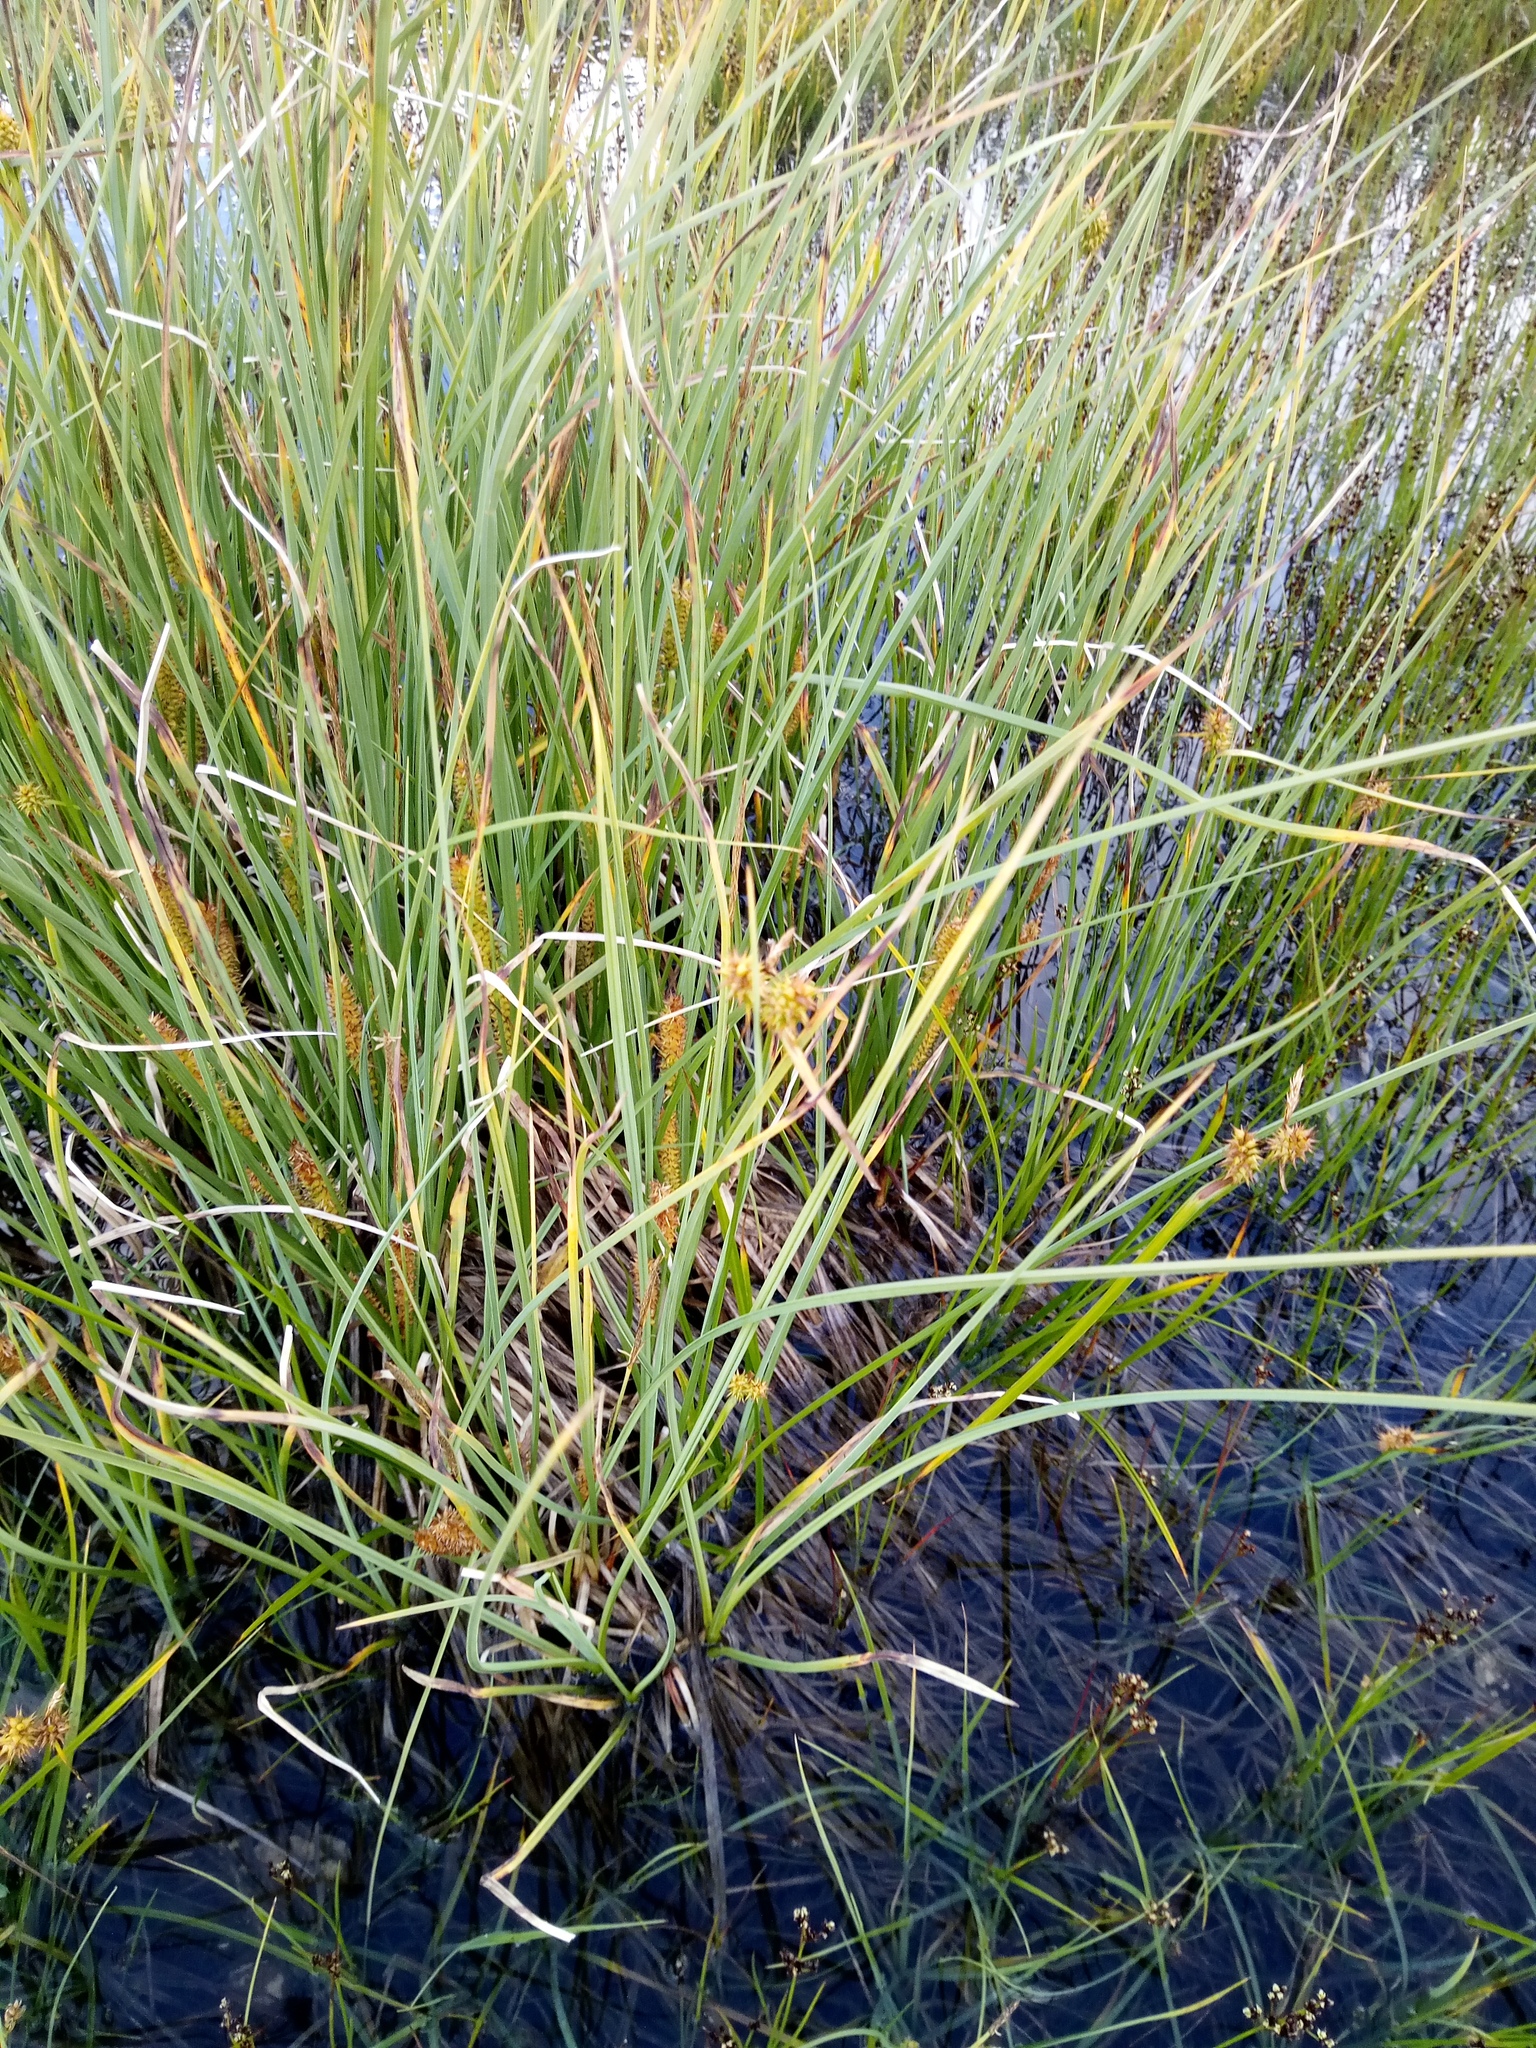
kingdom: Plantae
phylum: Tracheophyta
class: Liliopsida
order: Poales
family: Cyperaceae
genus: Carex
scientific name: Carex rostrata
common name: Bottle sedge
